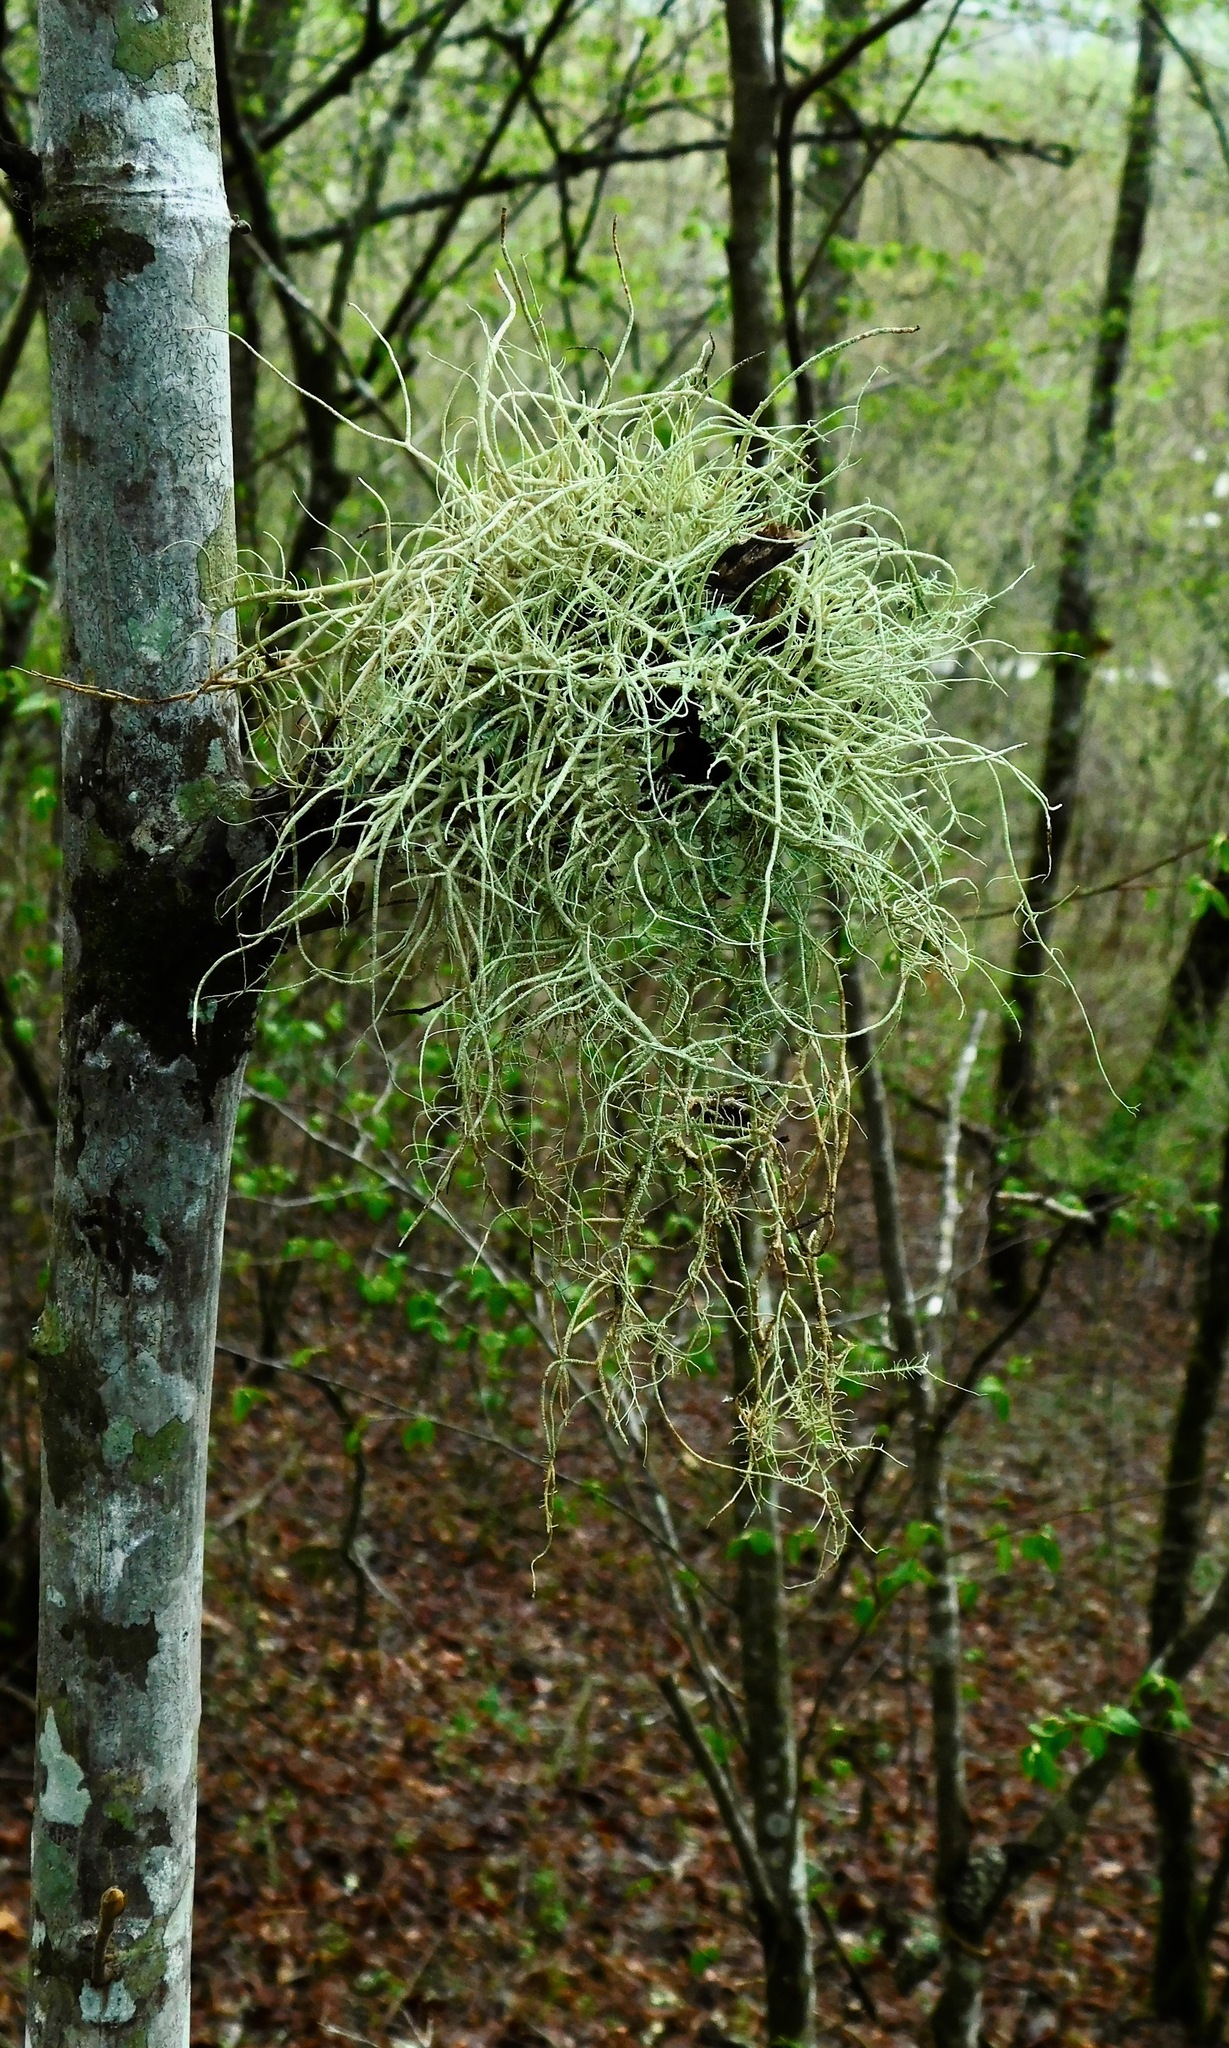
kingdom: Fungi
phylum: Ascomycota
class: Lecanoromycetes
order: Lecanorales
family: Parmeliaceae
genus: Usnea
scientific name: Usnea subscabrosa
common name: Beard lichen
